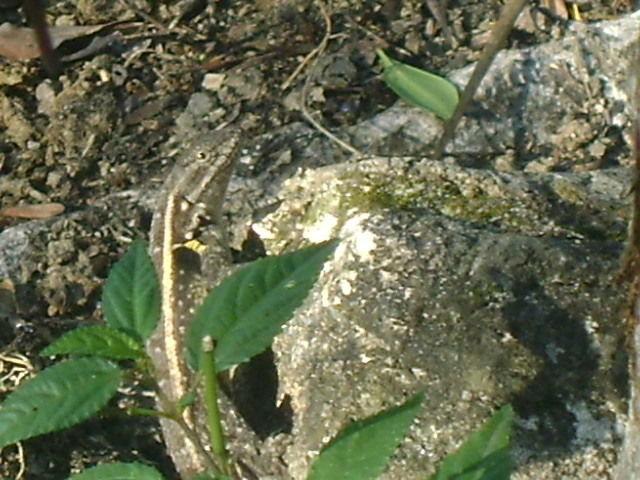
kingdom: Animalia
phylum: Chordata
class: Squamata
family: Phrynosomatidae
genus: Sceloporus
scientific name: Sceloporus variabilis
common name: Rosebelly lizard
